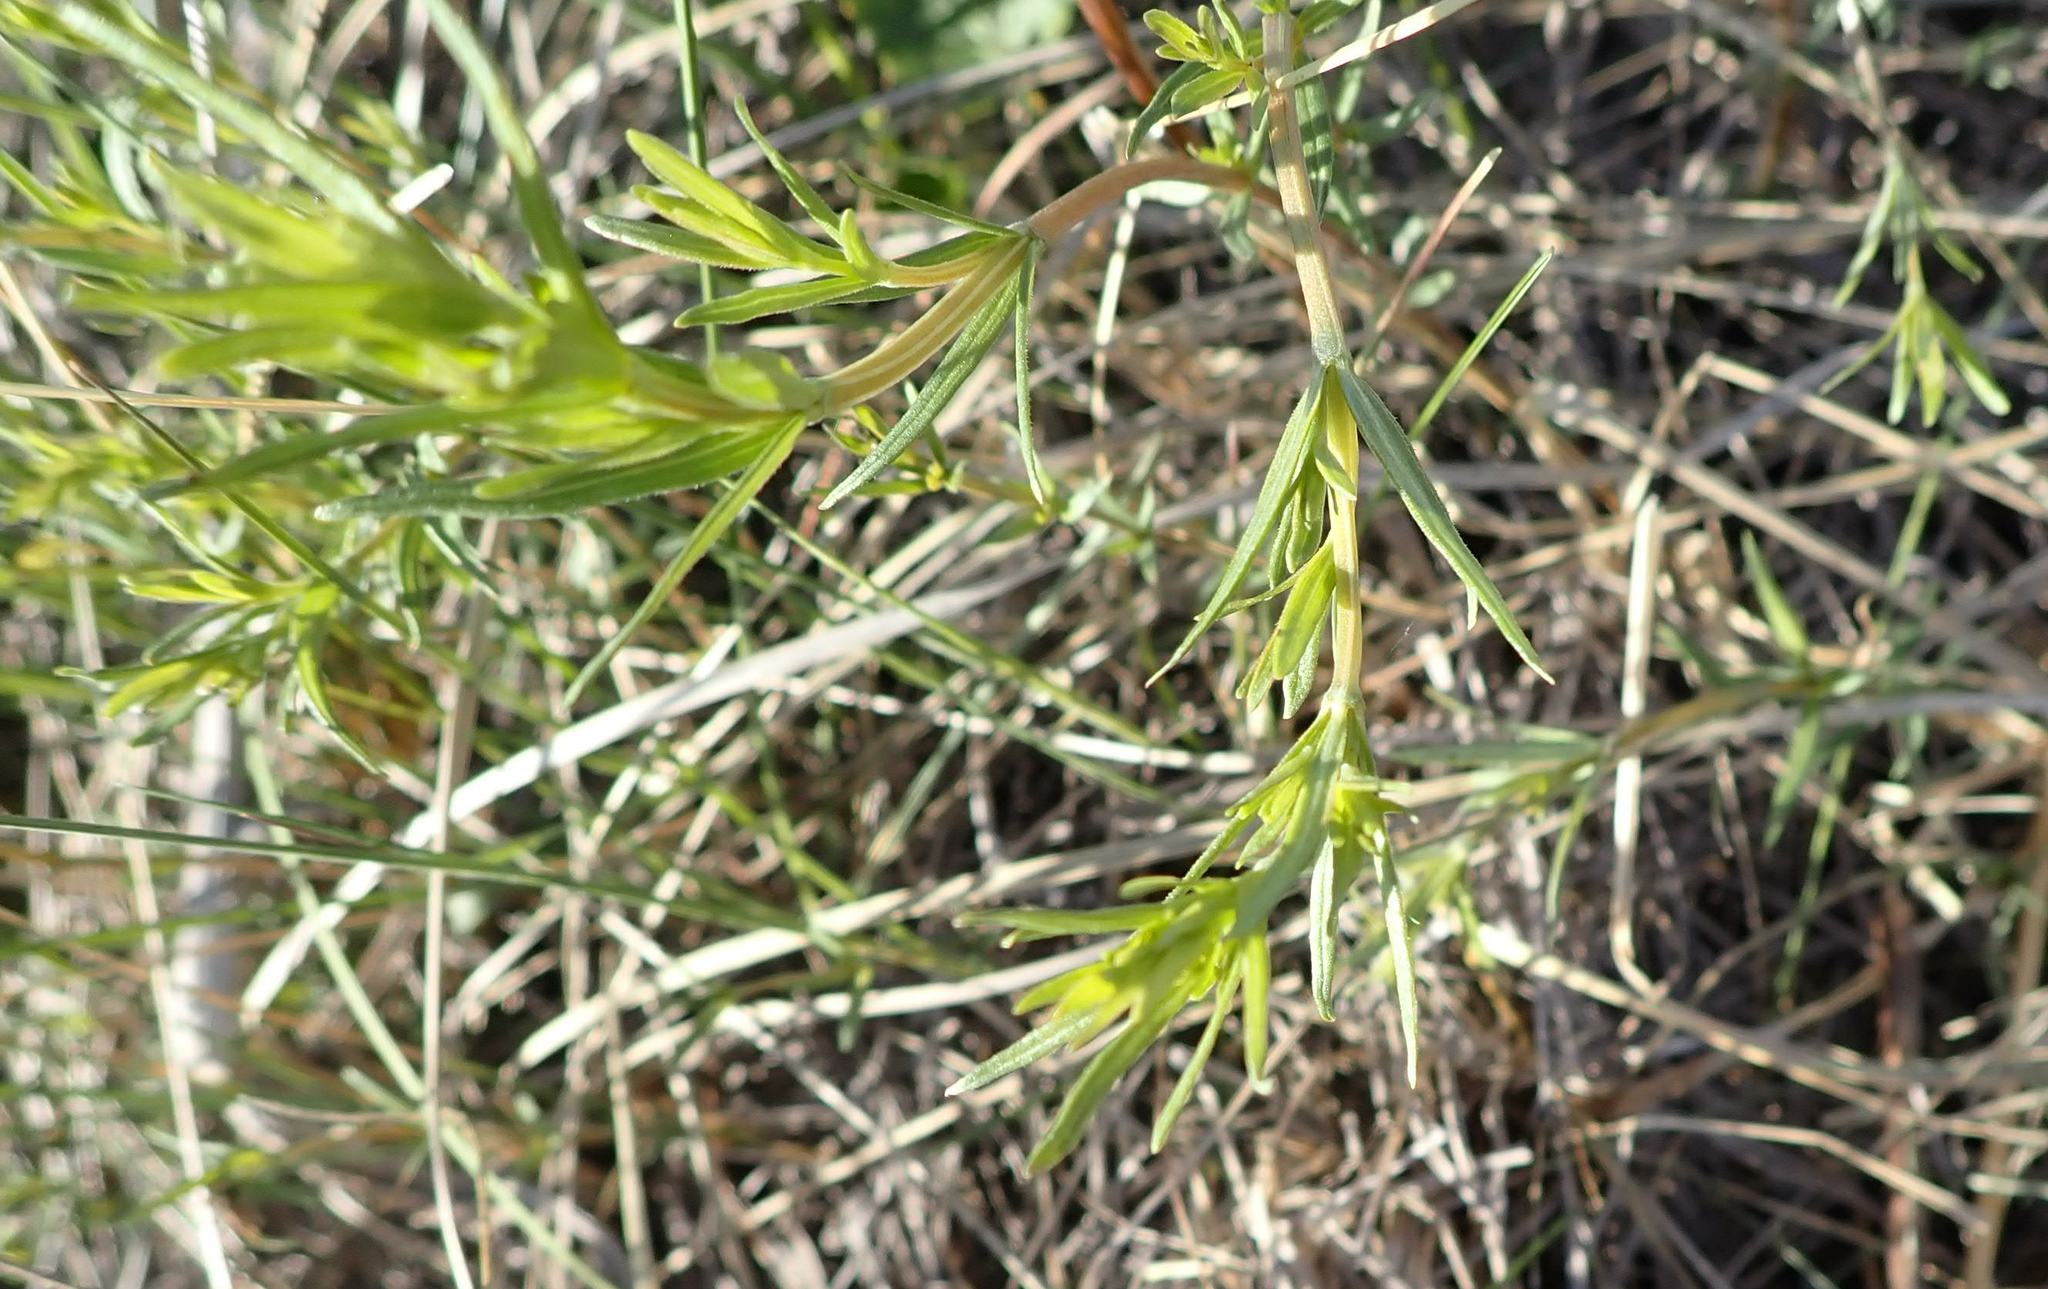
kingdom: Plantae
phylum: Tracheophyta
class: Magnoliopsida
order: Gentianales
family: Rubiaceae
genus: Galium
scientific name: Galium boreale
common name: Northern bedstraw
